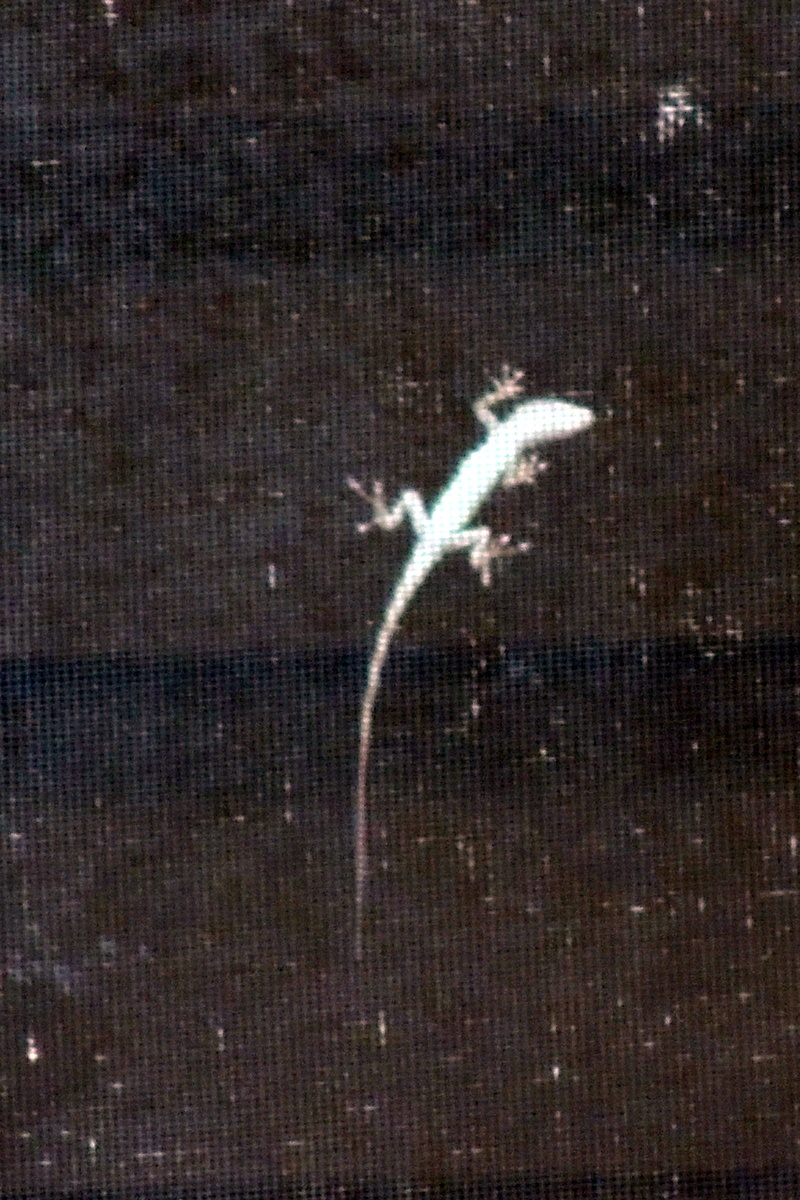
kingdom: Animalia
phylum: Chordata
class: Squamata
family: Dactyloidae
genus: Anolis
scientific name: Anolis carolinensis
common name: Green anole
